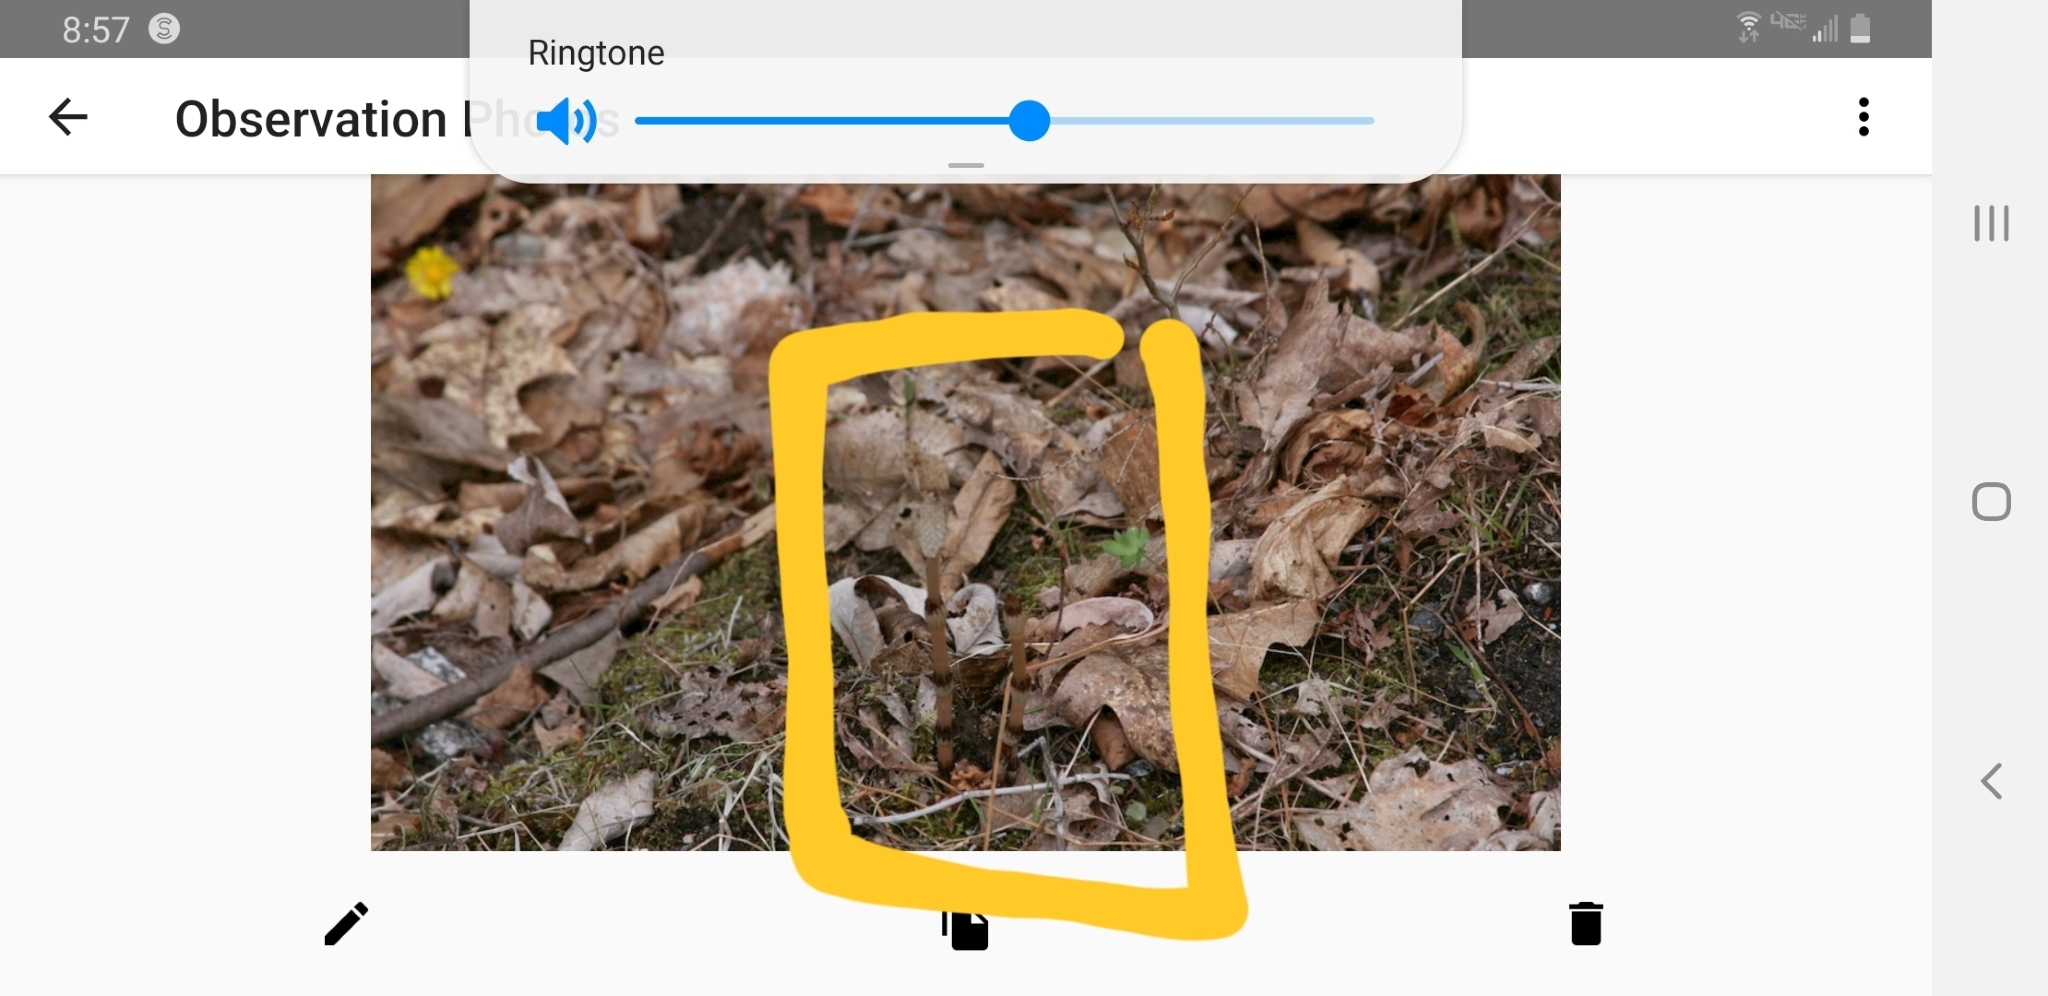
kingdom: Plantae
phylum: Tracheophyta
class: Polypodiopsida
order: Equisetales
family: Equisetaceae
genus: Equisetum
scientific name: Equisetum arvense
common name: Field horsetail
